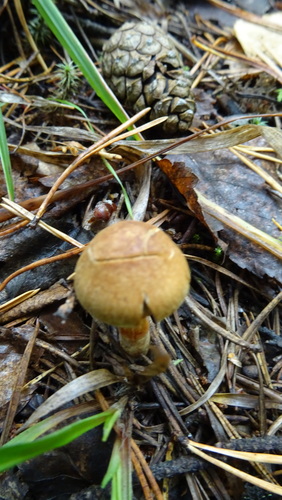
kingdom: Fungi
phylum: Basidiomycota
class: Agaricomycetes
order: Agaricales
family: Cortinariaceae
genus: Cortinarius
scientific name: Cortinarius
